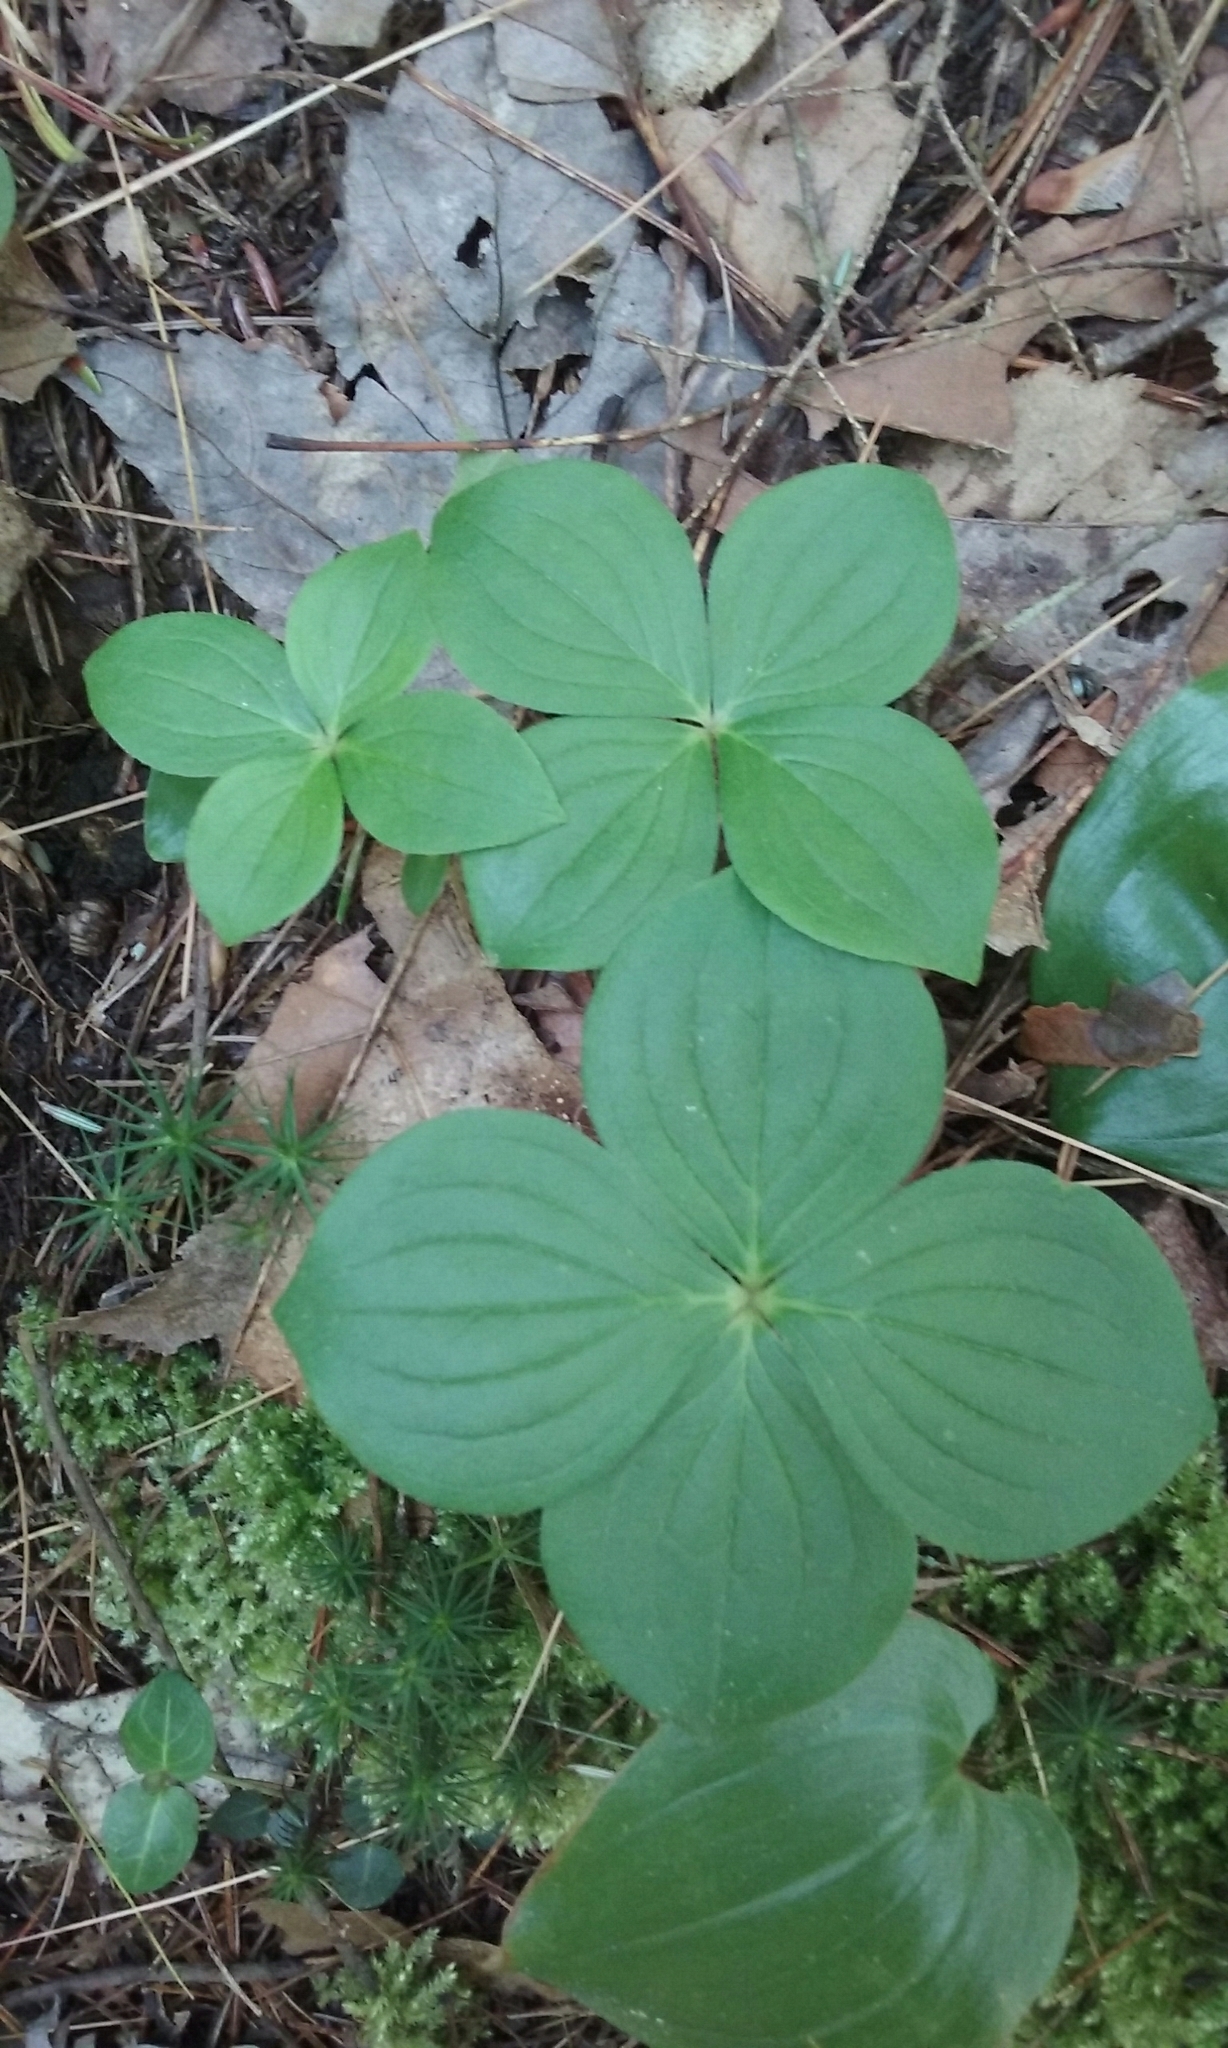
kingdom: Plantae
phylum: Tracheophyta
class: Magnoliopsida
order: Cornales
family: Cornaceae
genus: Cornus
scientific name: Cornus canadensis
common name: Creeping dogwood
